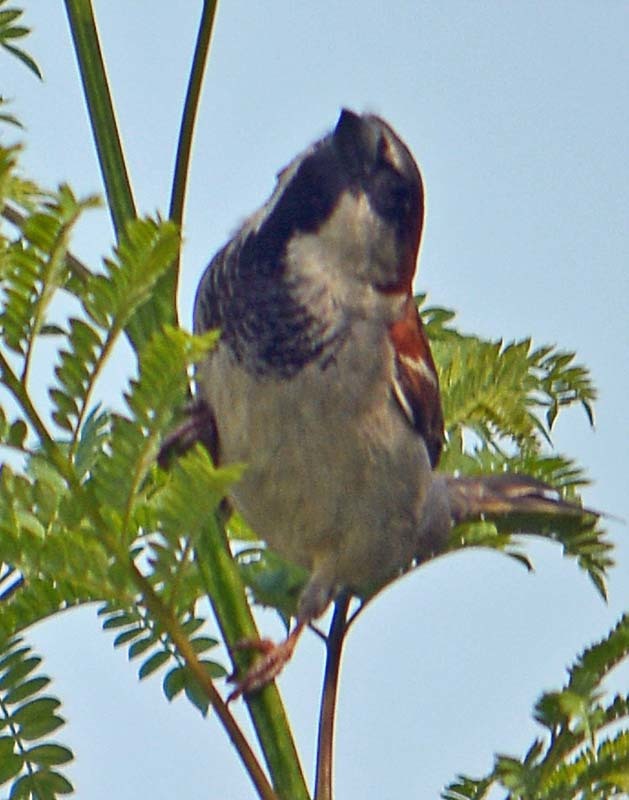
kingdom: Animalia
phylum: Chordata
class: Aves
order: Passeriformes
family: Passeridae
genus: Passer
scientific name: Passer domesticus
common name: House sparrow
